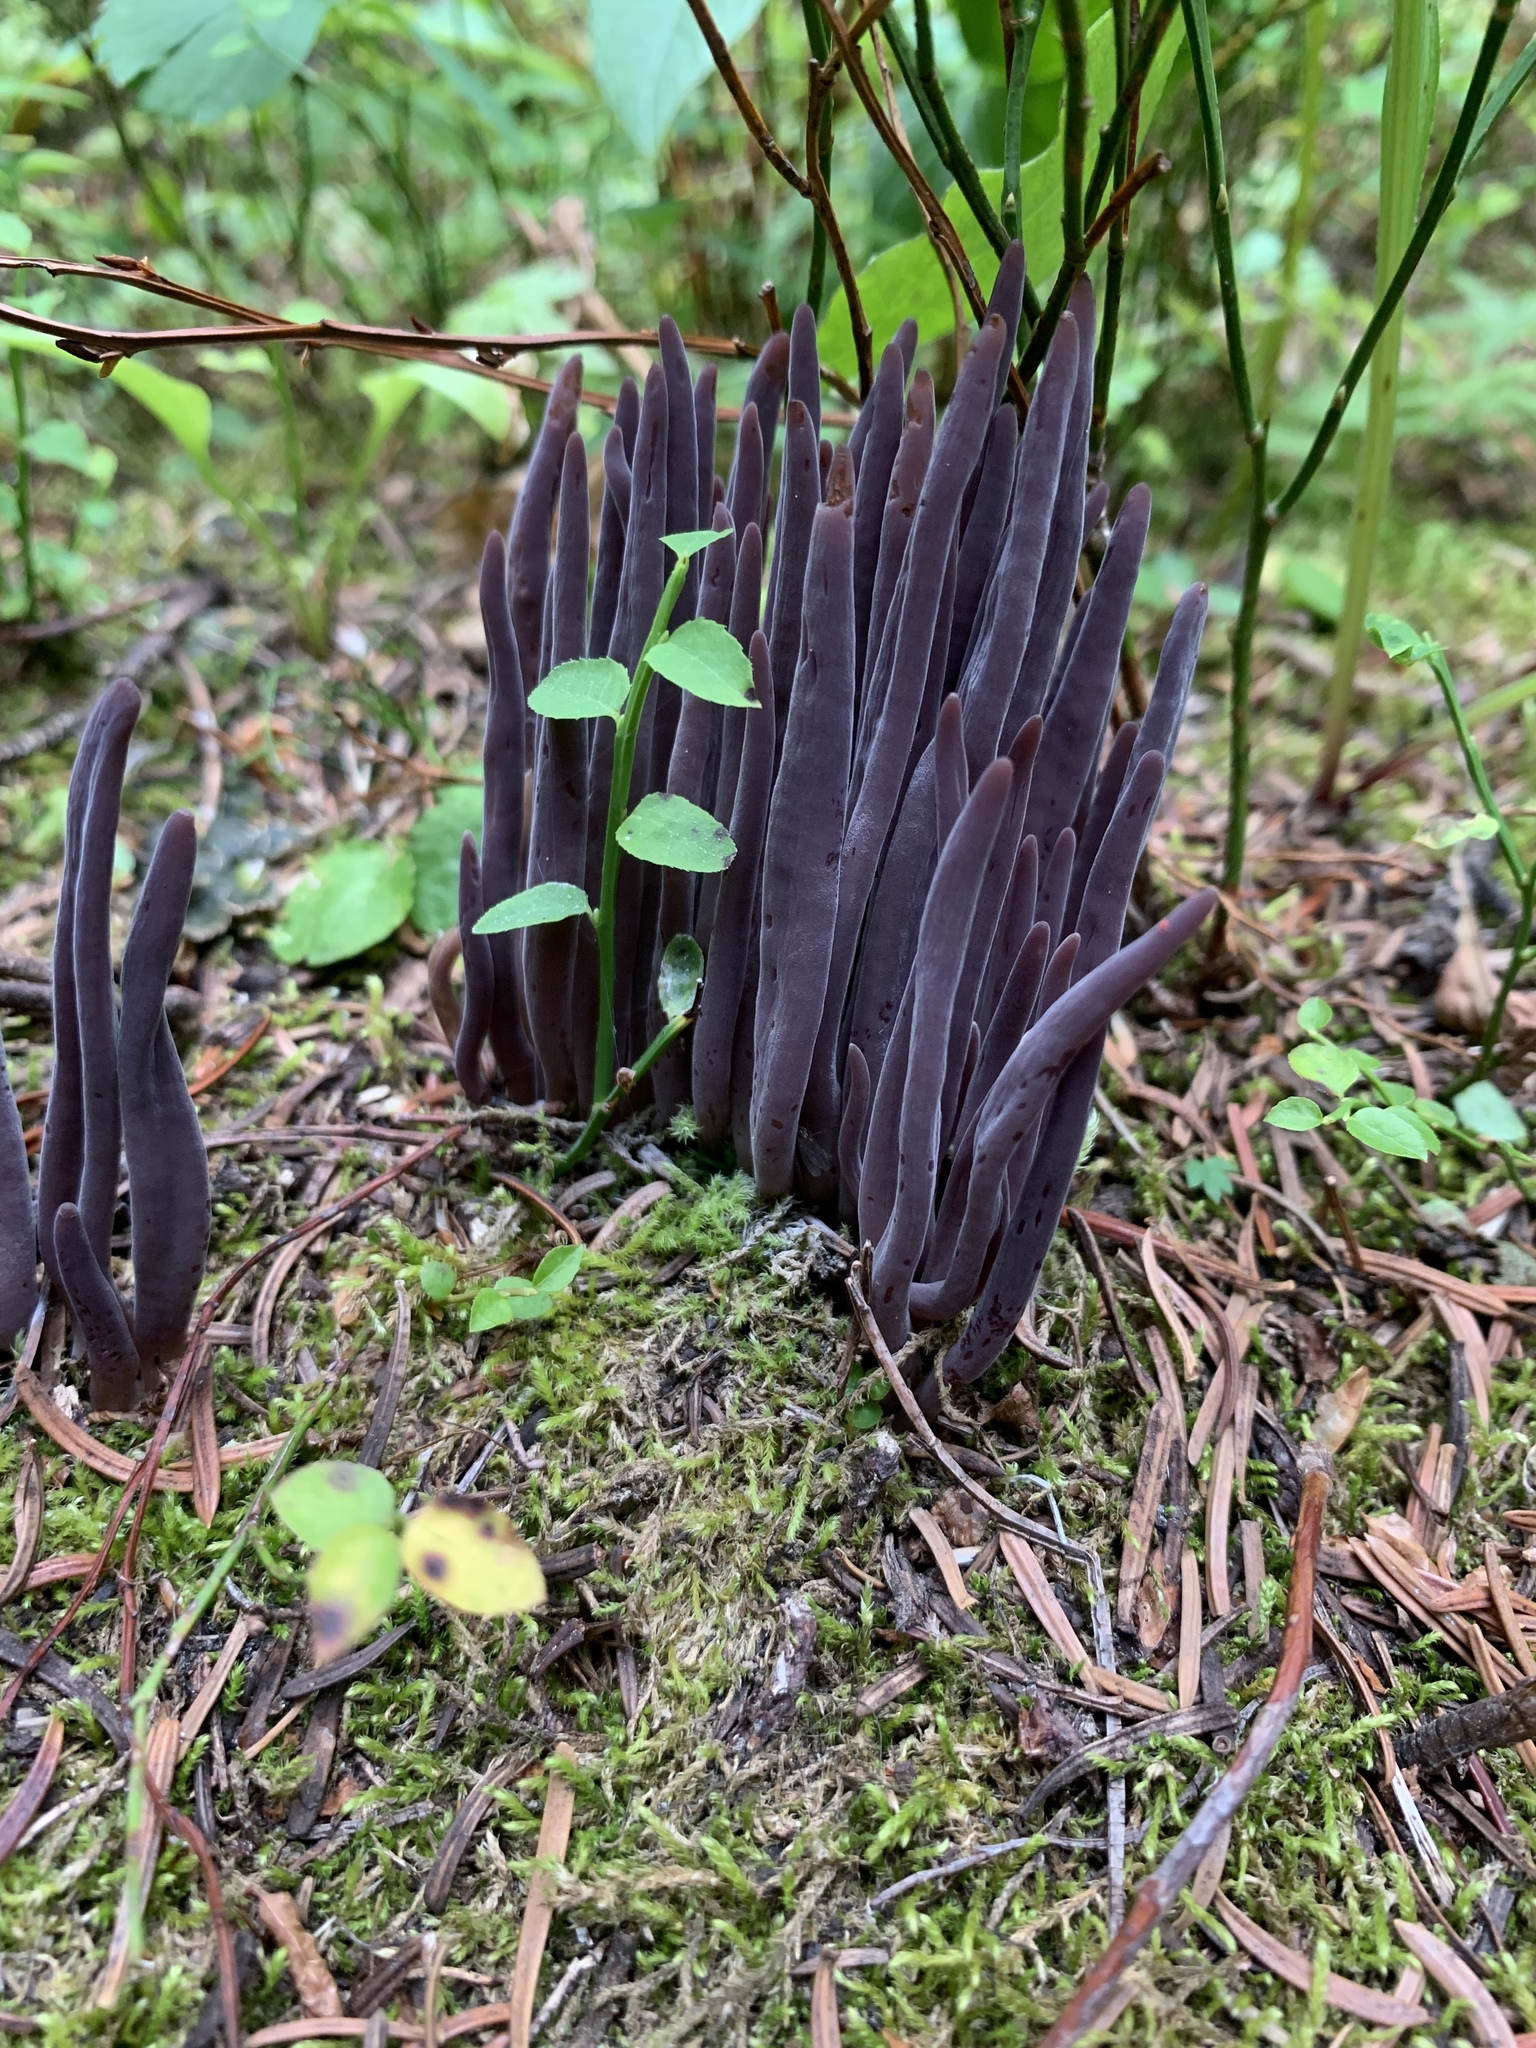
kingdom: Fungi
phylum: Basidiomycota
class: Agaricomycetes
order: Hymenochaetales
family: Rickenellaceae
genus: Alloclavaria
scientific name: Alloclavaria purpurea
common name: Purple spindles
